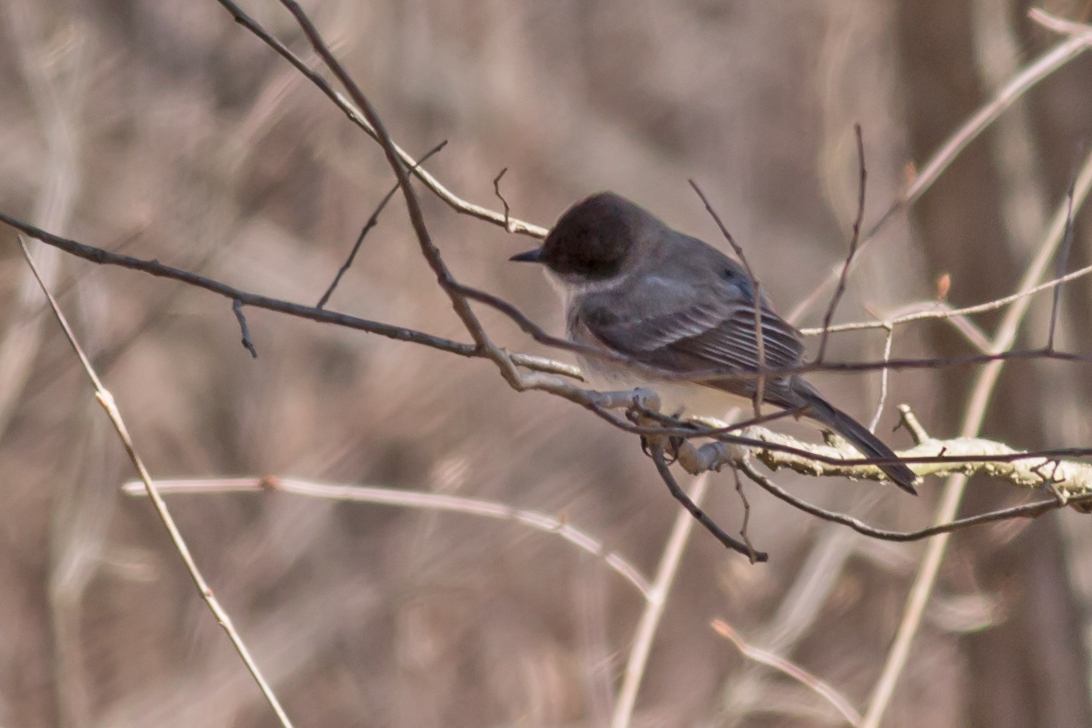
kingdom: Animalia
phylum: Chordata
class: Aves
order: Passeriformes
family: Tyrannidae
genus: Sayornis
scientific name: Sayornis phoebe
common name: Eastern phoebe
